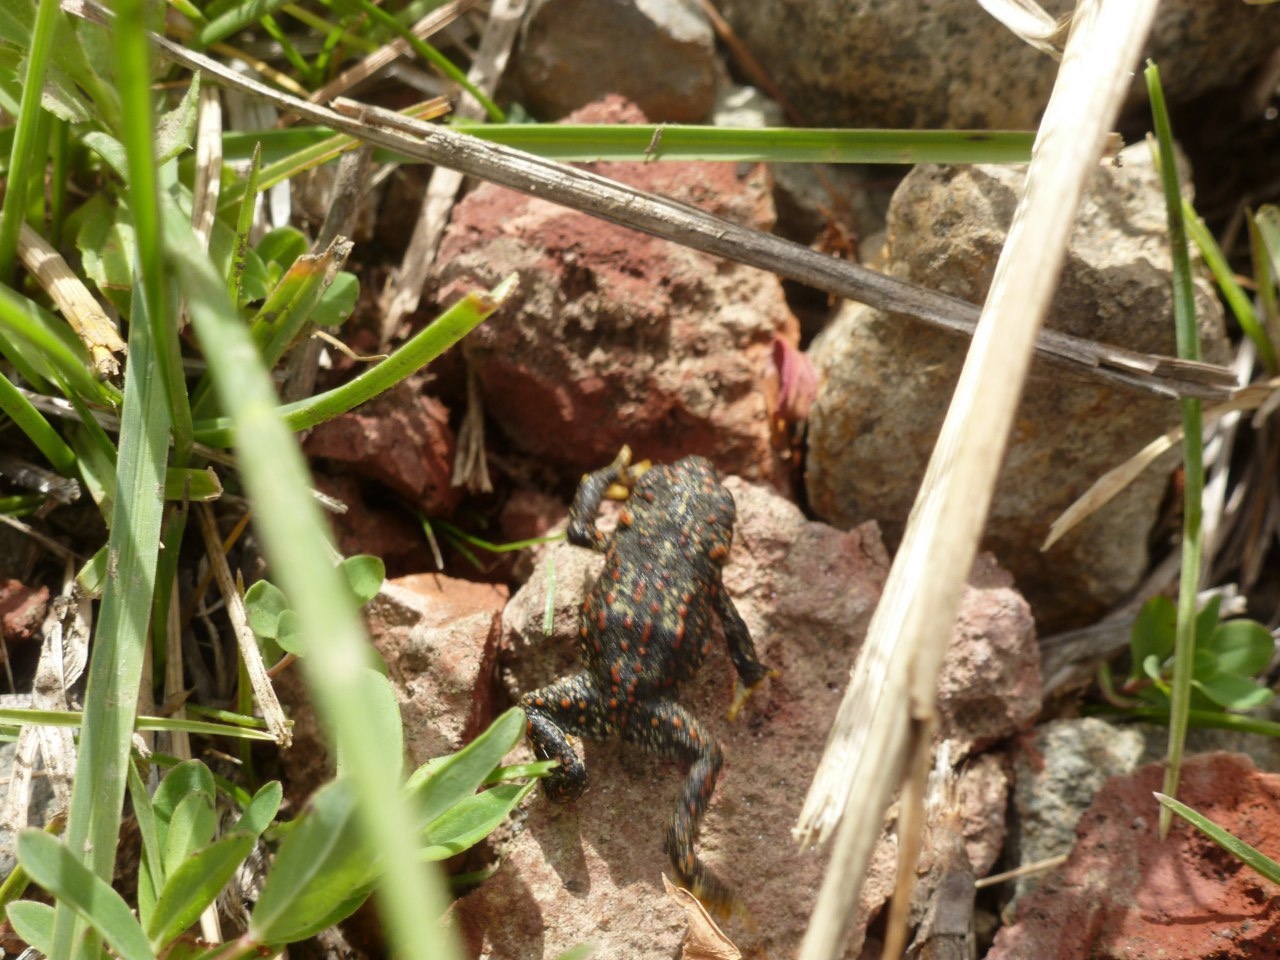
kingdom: Animalia
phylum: Chordata
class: Amphibia
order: Anura
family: Bufonidae
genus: Rhinella
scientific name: Rhinella spinulosa
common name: Warty toad
